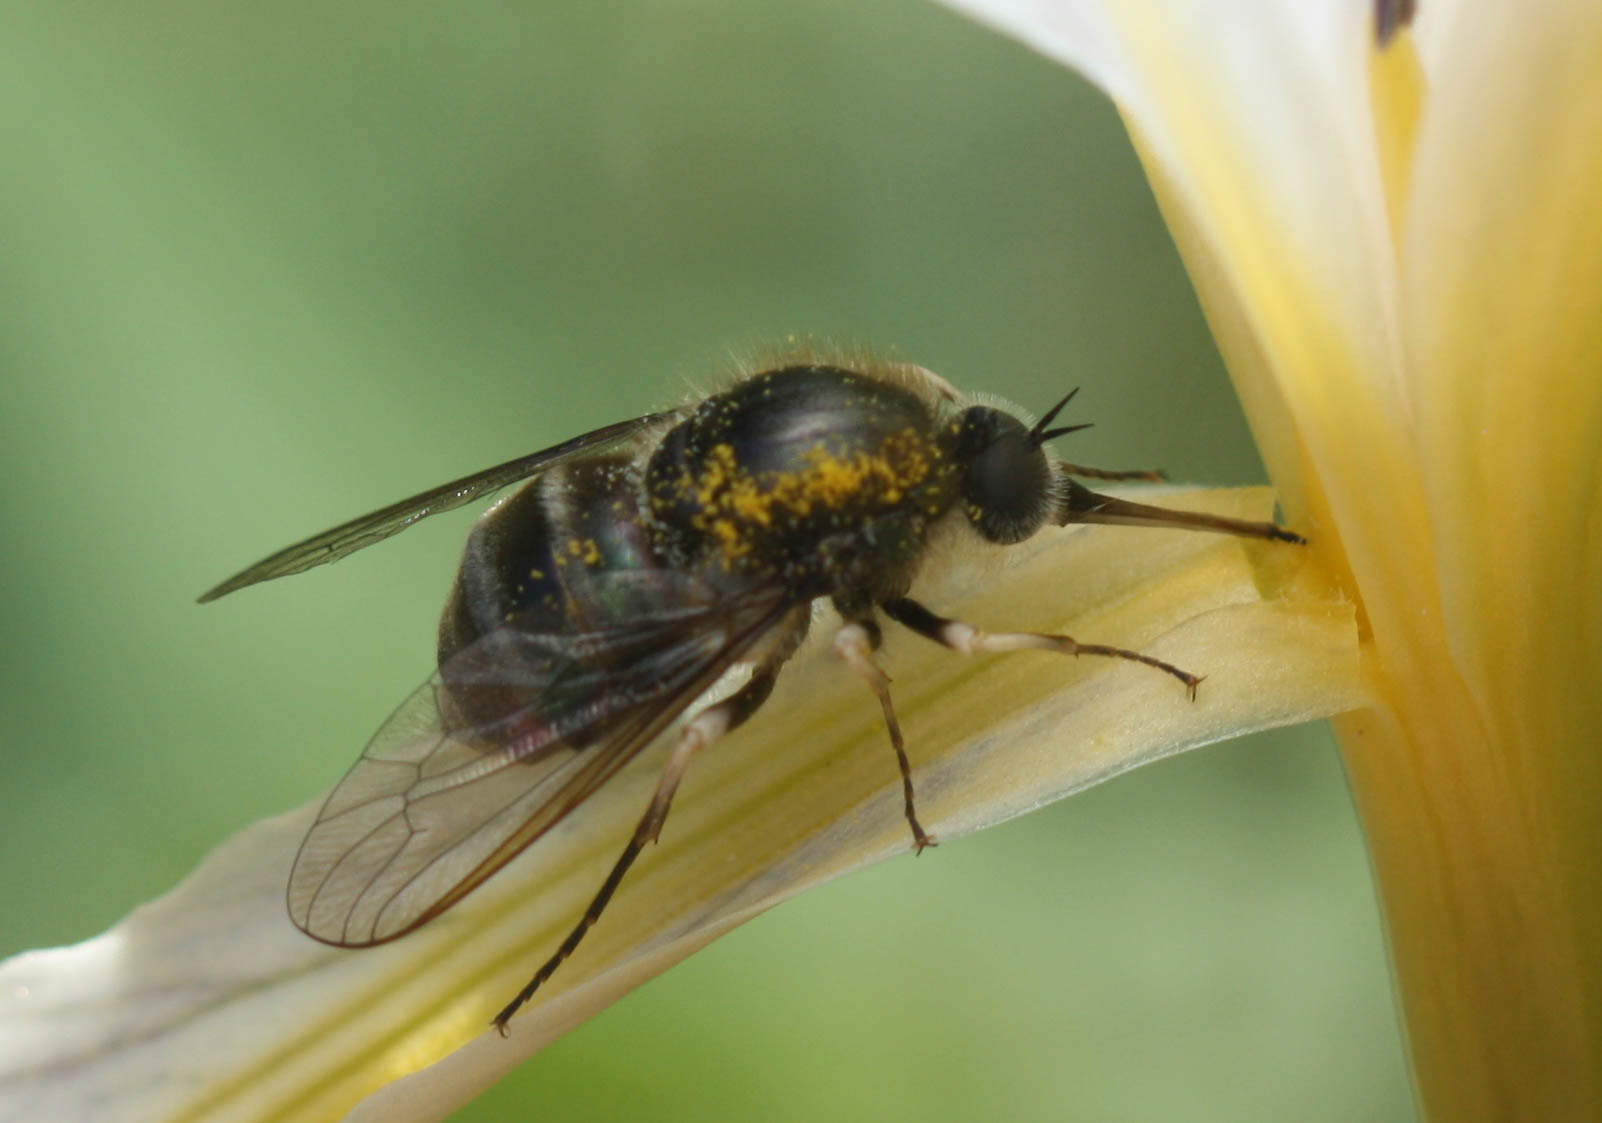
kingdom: Animalia
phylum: Arthropoda
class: Insecta
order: Diptera
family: Acroceridae
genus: Eulonchus
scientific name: Eulonchus marginatus
